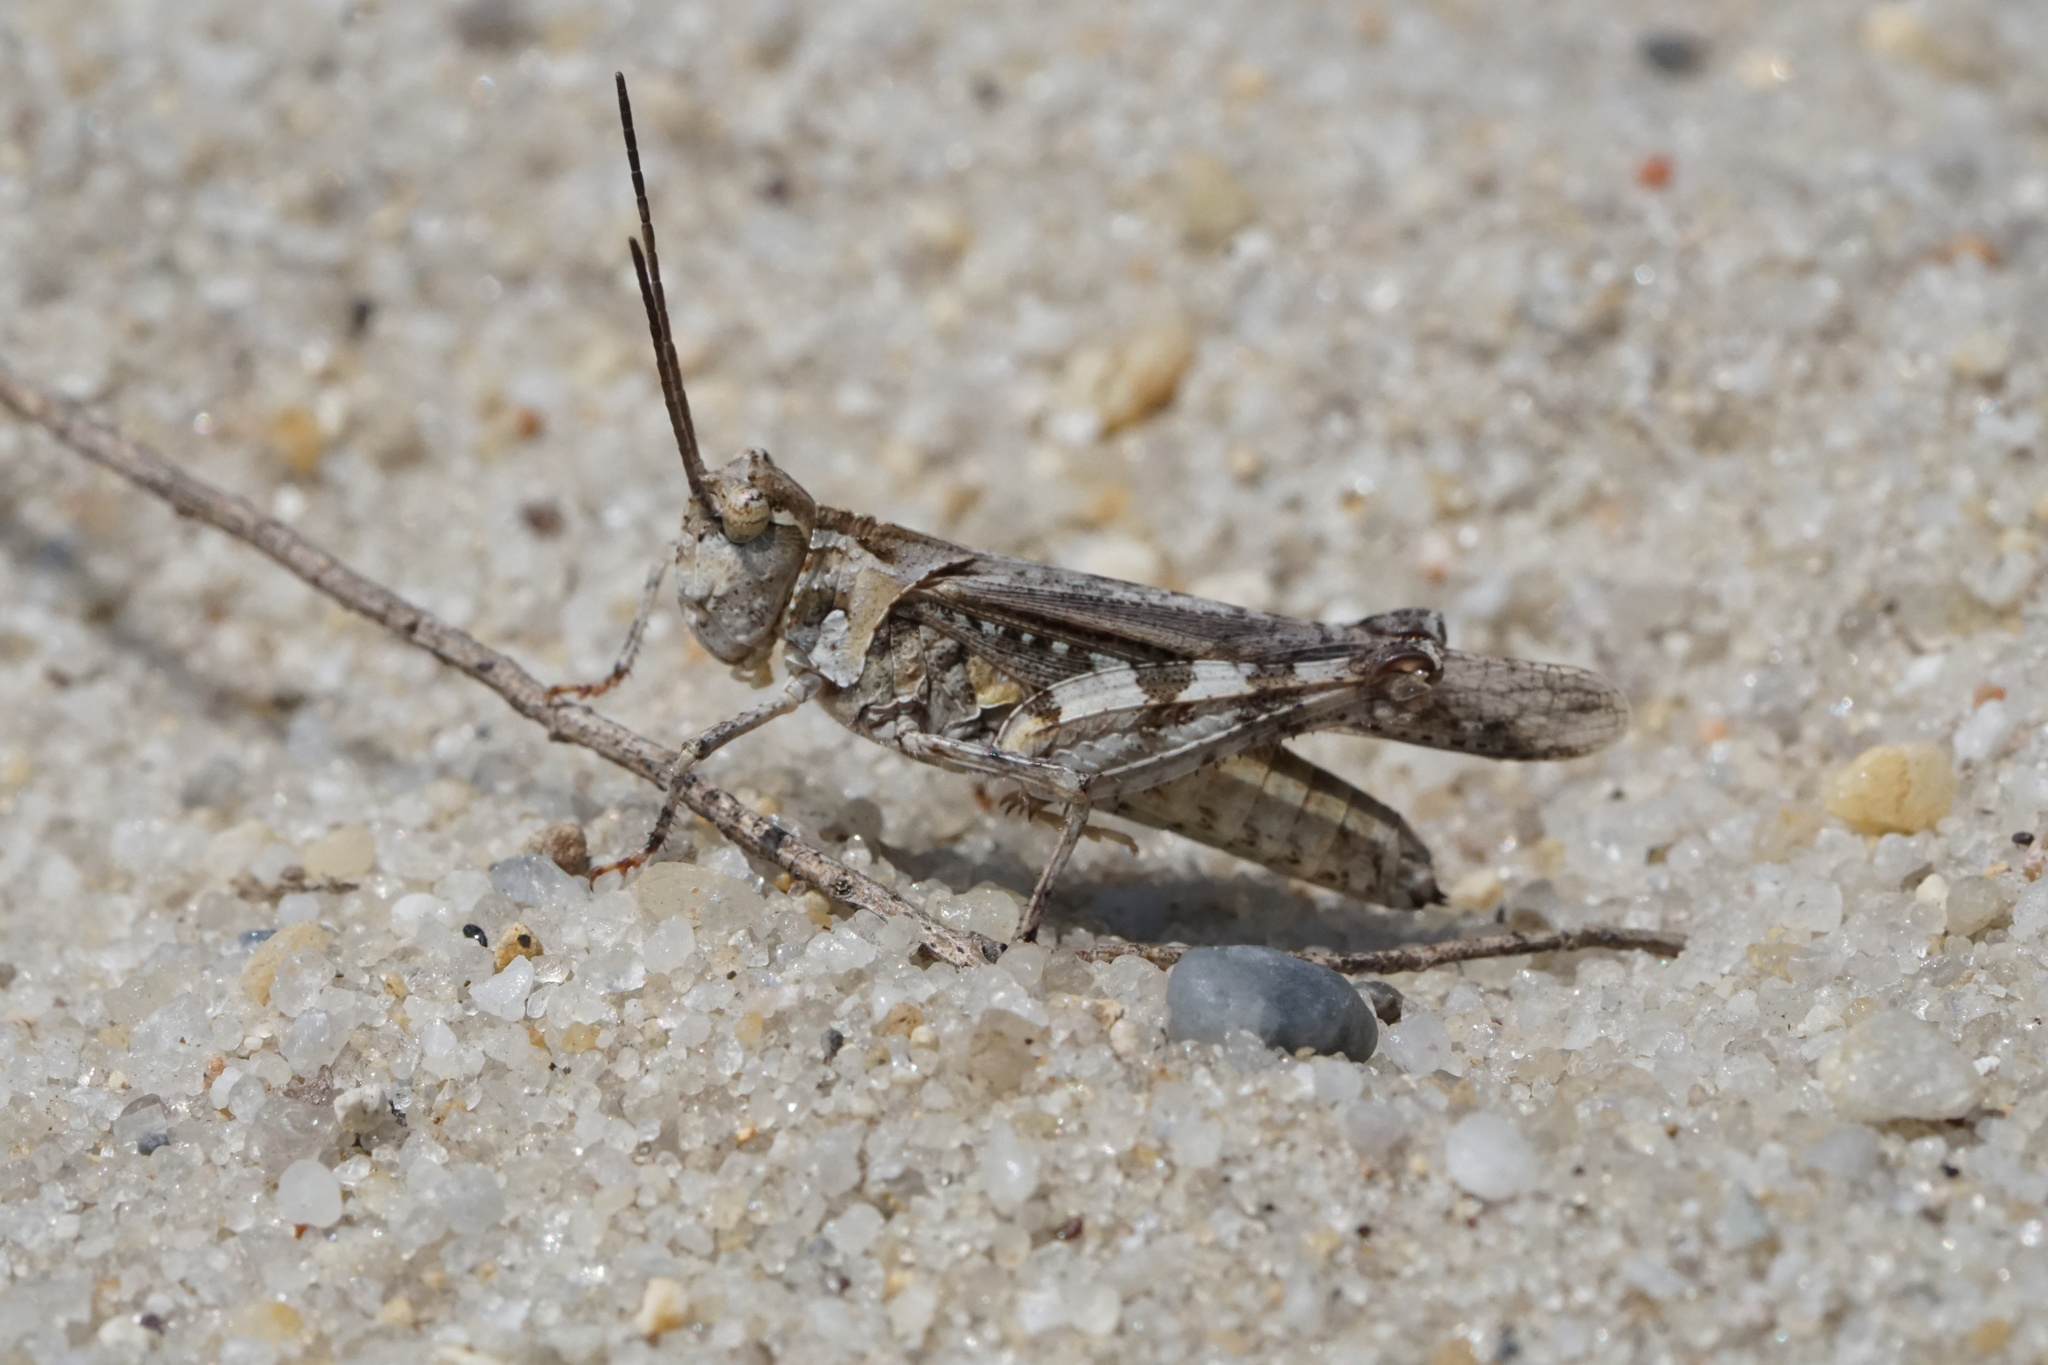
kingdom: Animalia
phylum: Arthropoda
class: Insecta
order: Orthoptera
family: Acrididae
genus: Psinidia
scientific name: Psinidia fenestralis
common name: Long-horned locust
